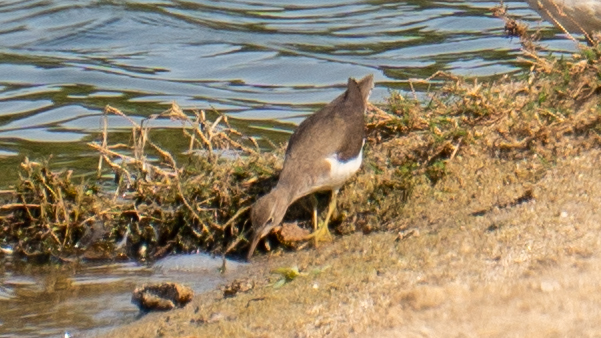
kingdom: Animalia
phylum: Chordata
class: Aves
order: Charadriiformes
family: Scolopacidae
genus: Actitis
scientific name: Actitis macularius
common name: Spotted sandpiper
